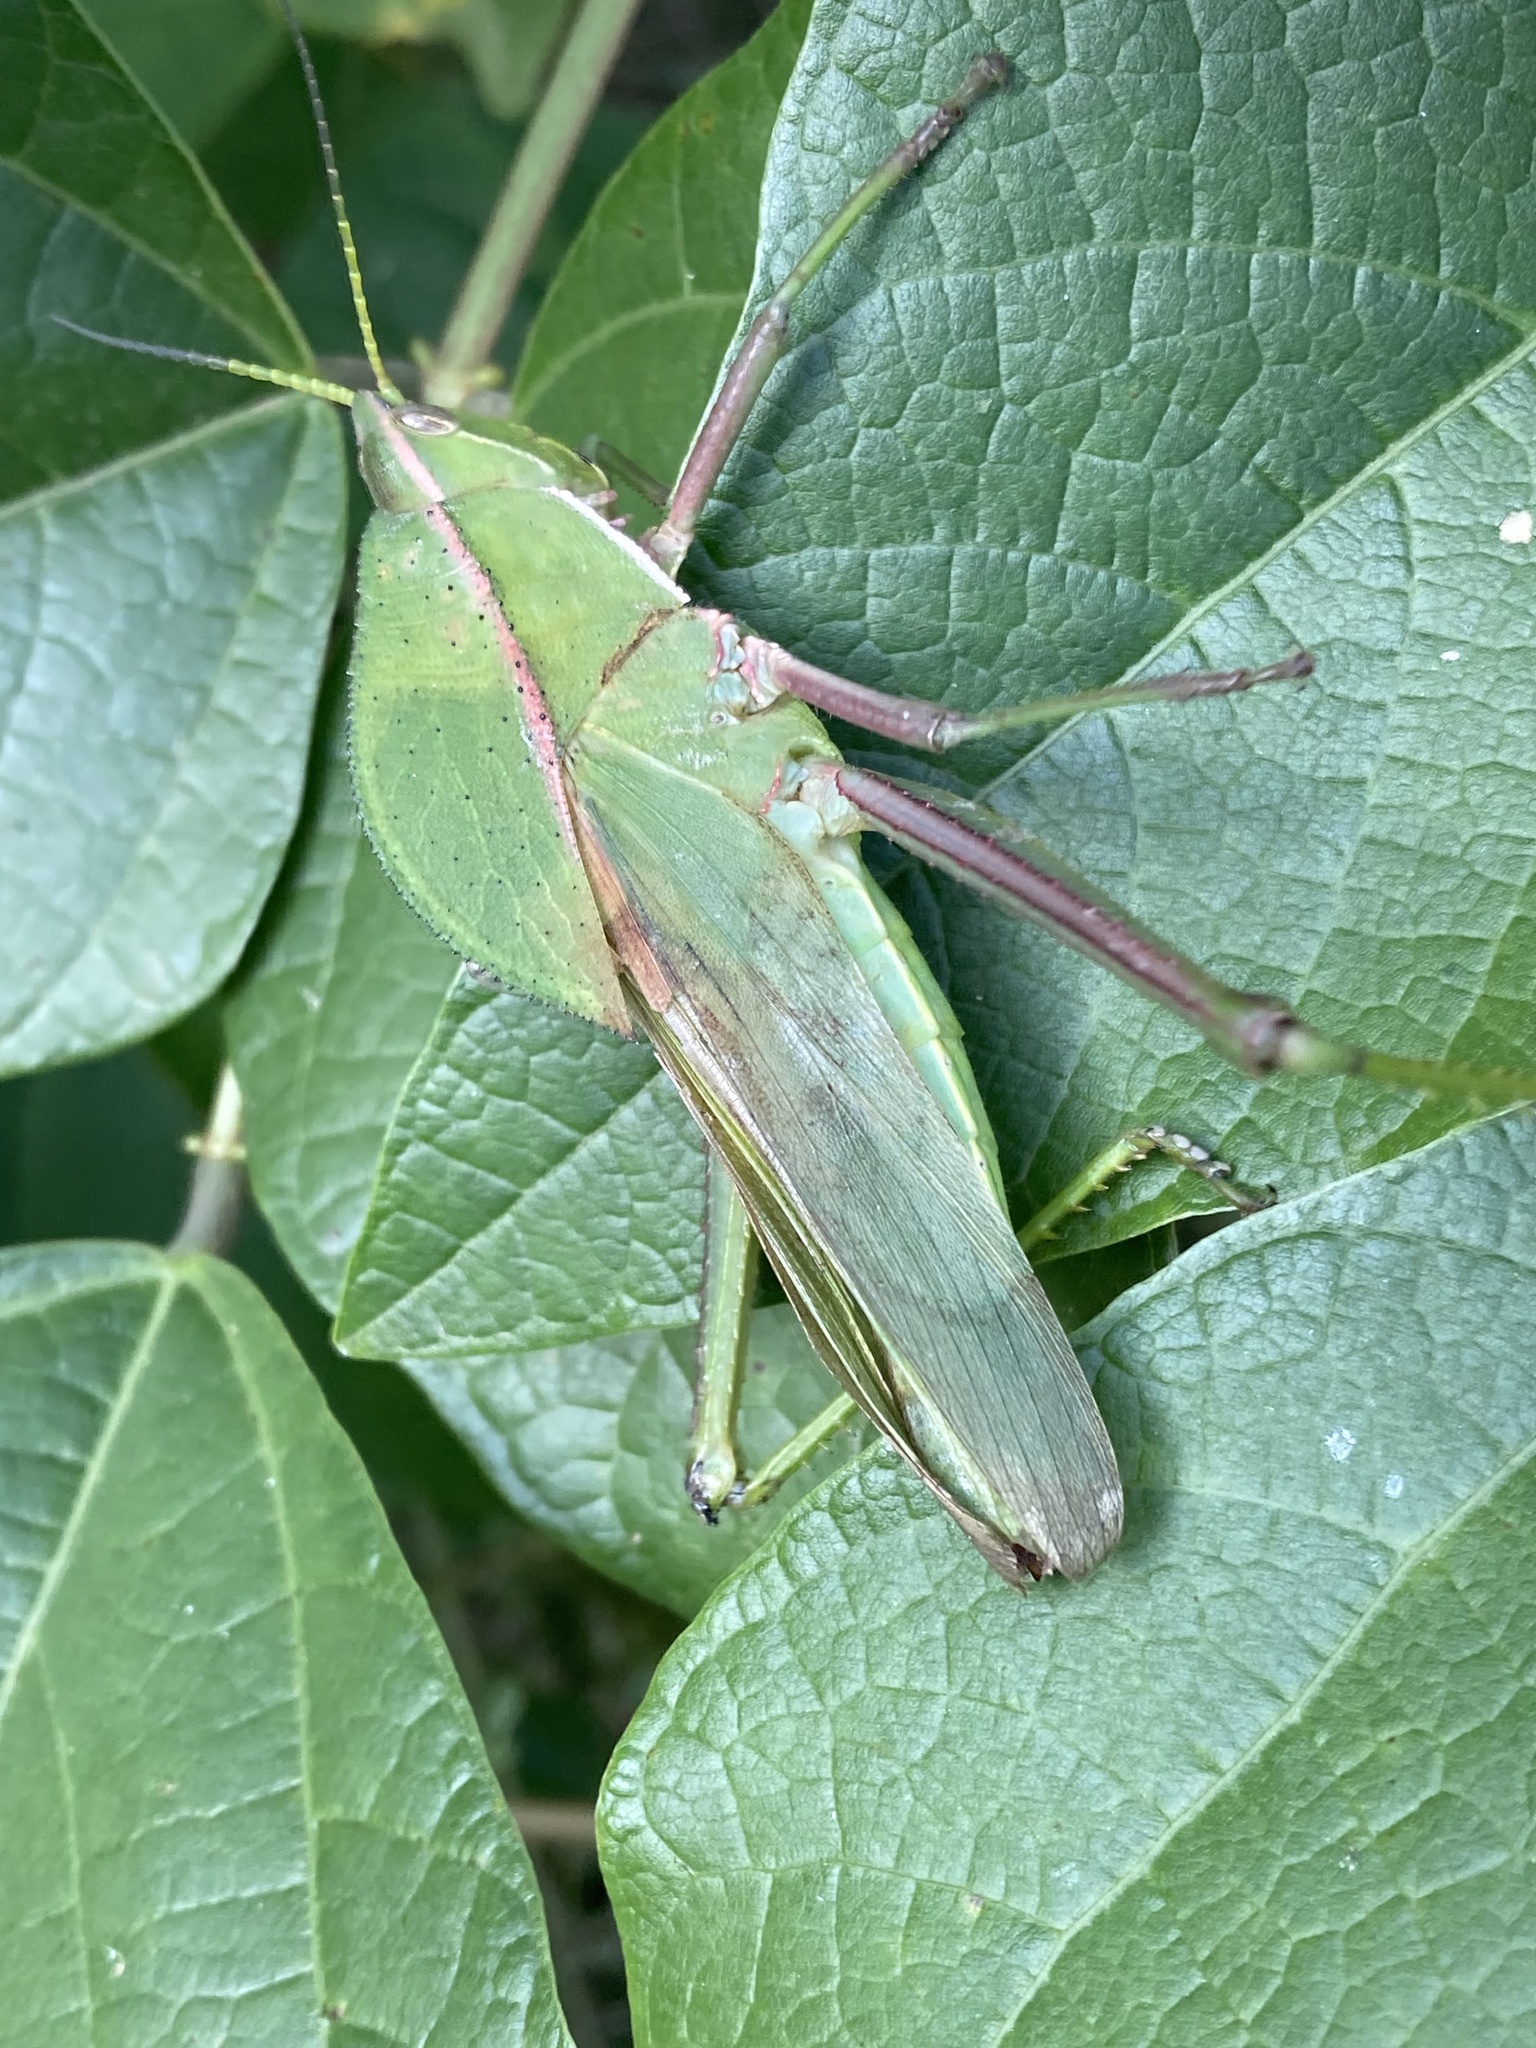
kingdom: Animalia
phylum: Arthropoda
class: Insecta
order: Orthoptera
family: Romaleidae
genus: Prionolopha
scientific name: Prionolopha serrata
